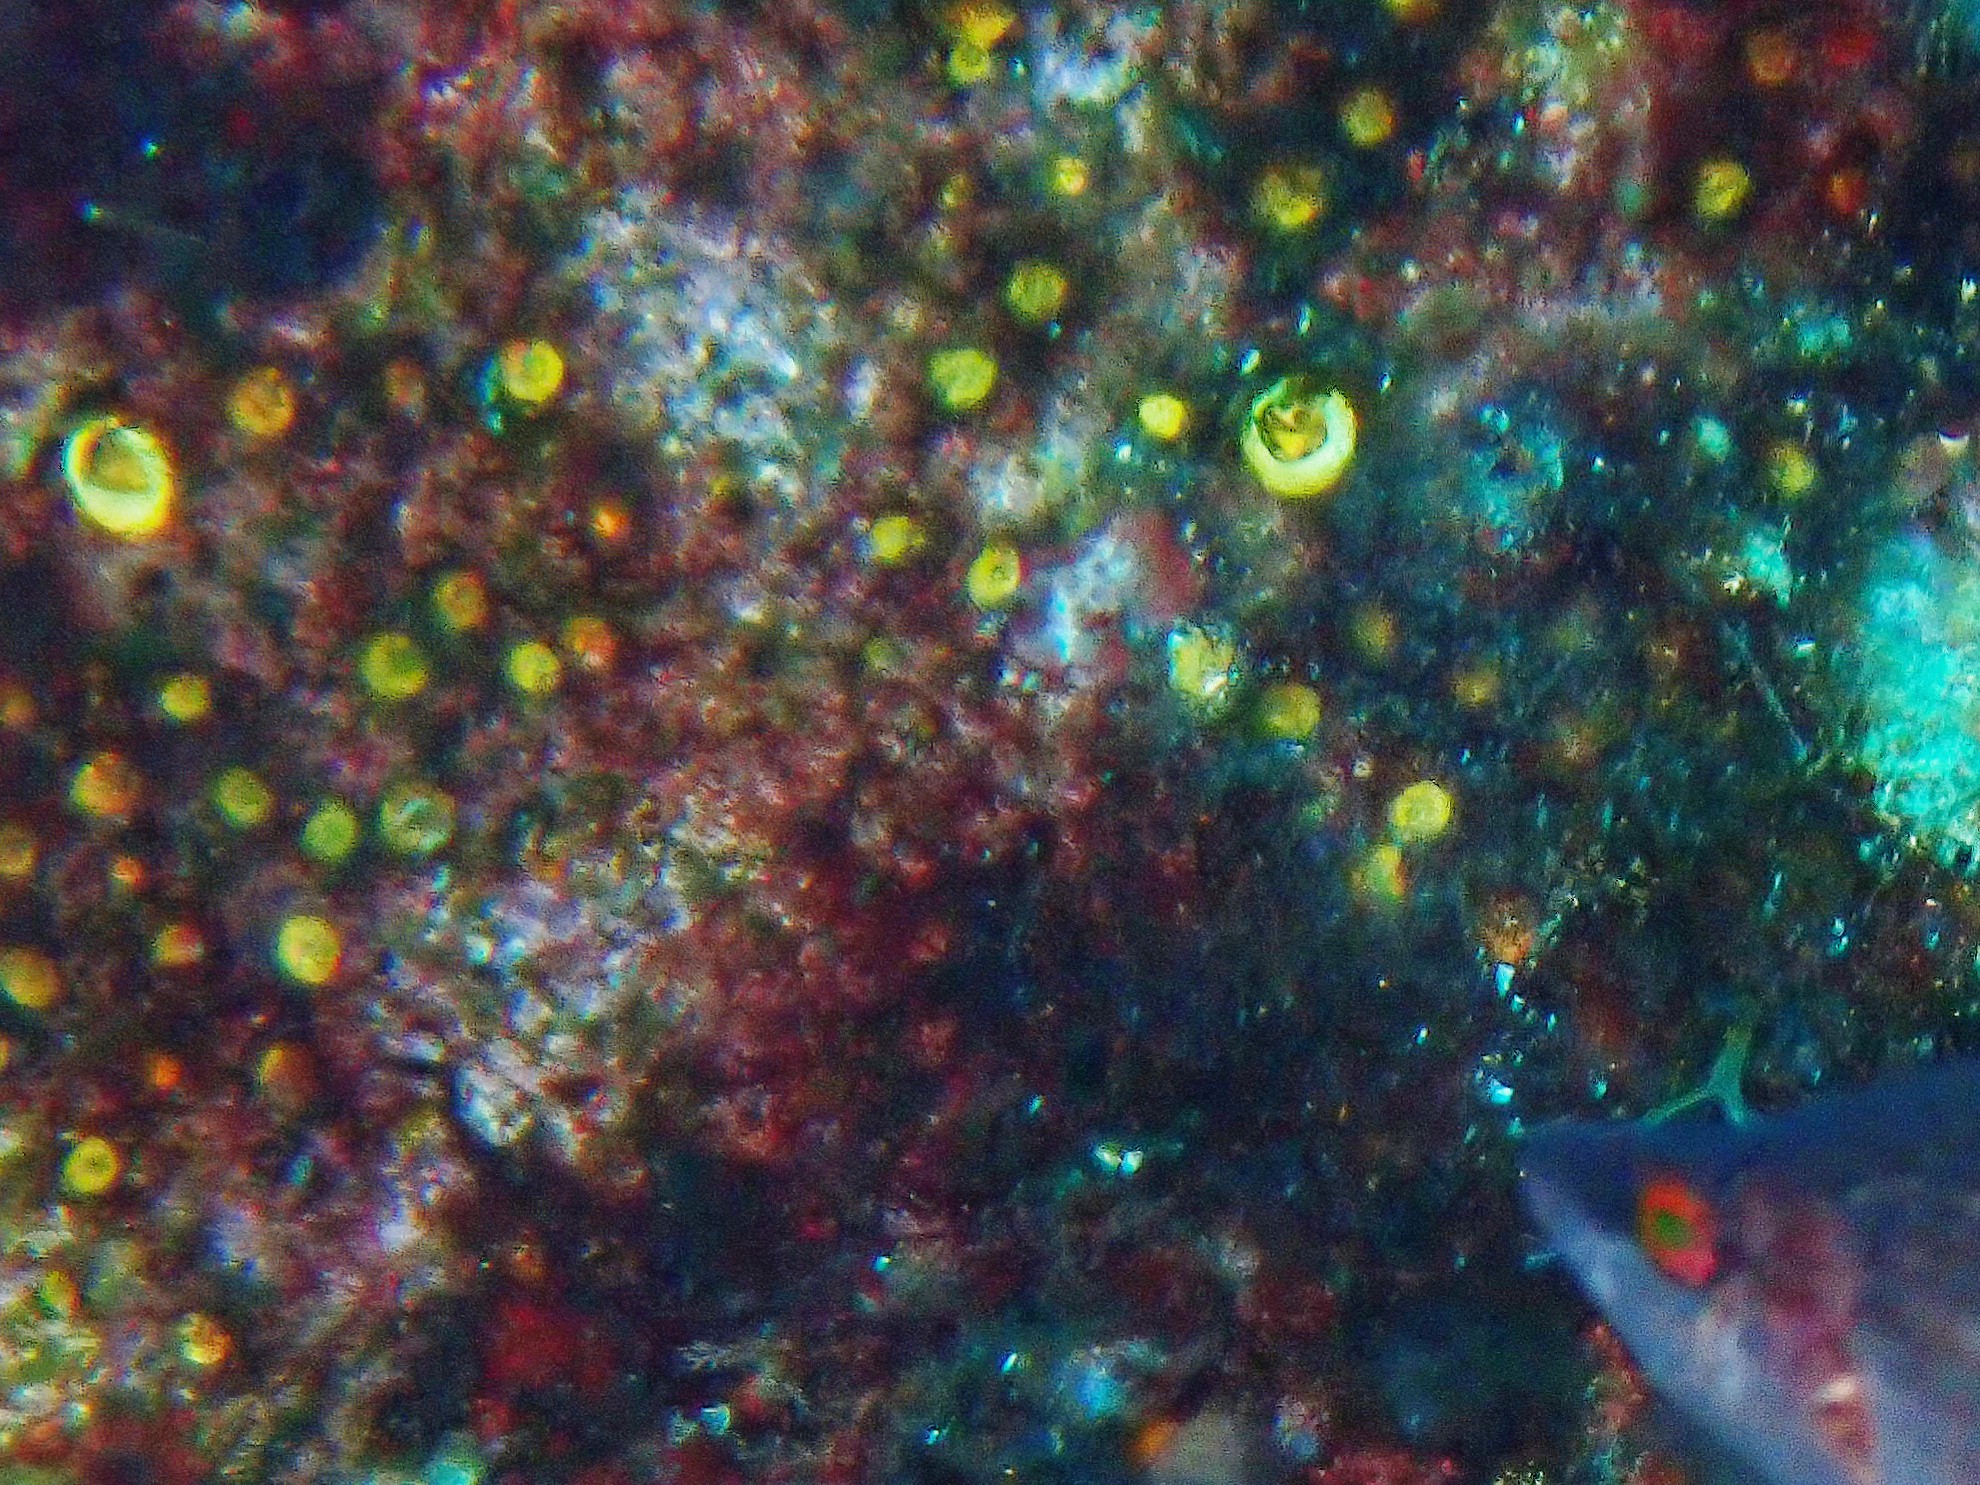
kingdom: Animalia
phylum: Porifera
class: Demospongiae
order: Clionaida
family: Clionaidae
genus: Cliona
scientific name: Cliona celata
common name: Boring sponge
